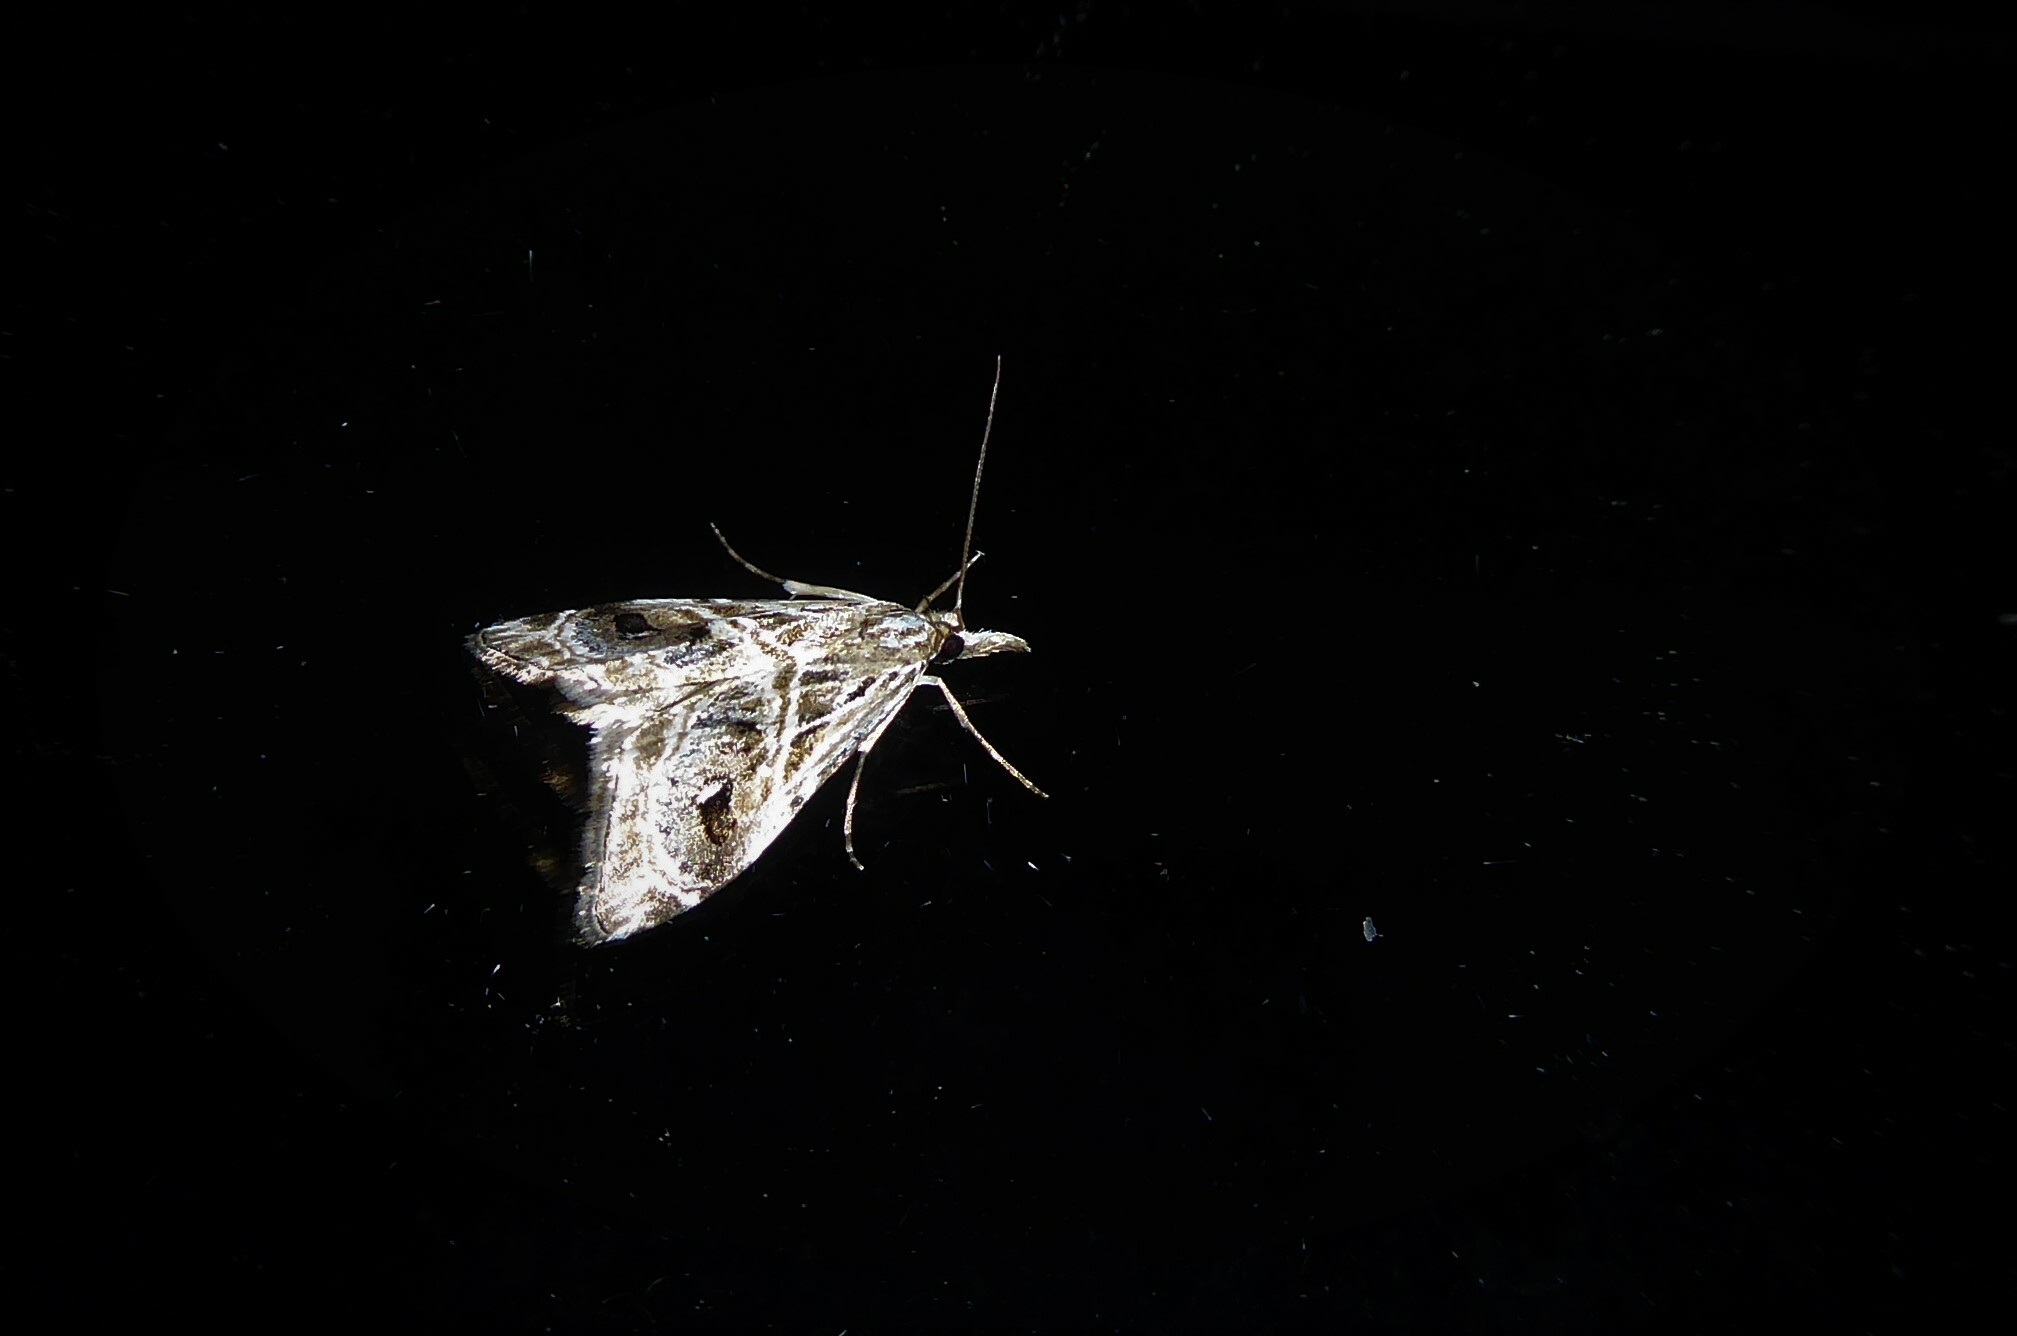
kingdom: Animalia
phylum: Arthropoda
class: Insecta
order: Lepidoptera
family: Crambidae
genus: Gadira
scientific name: Gadira acerella
